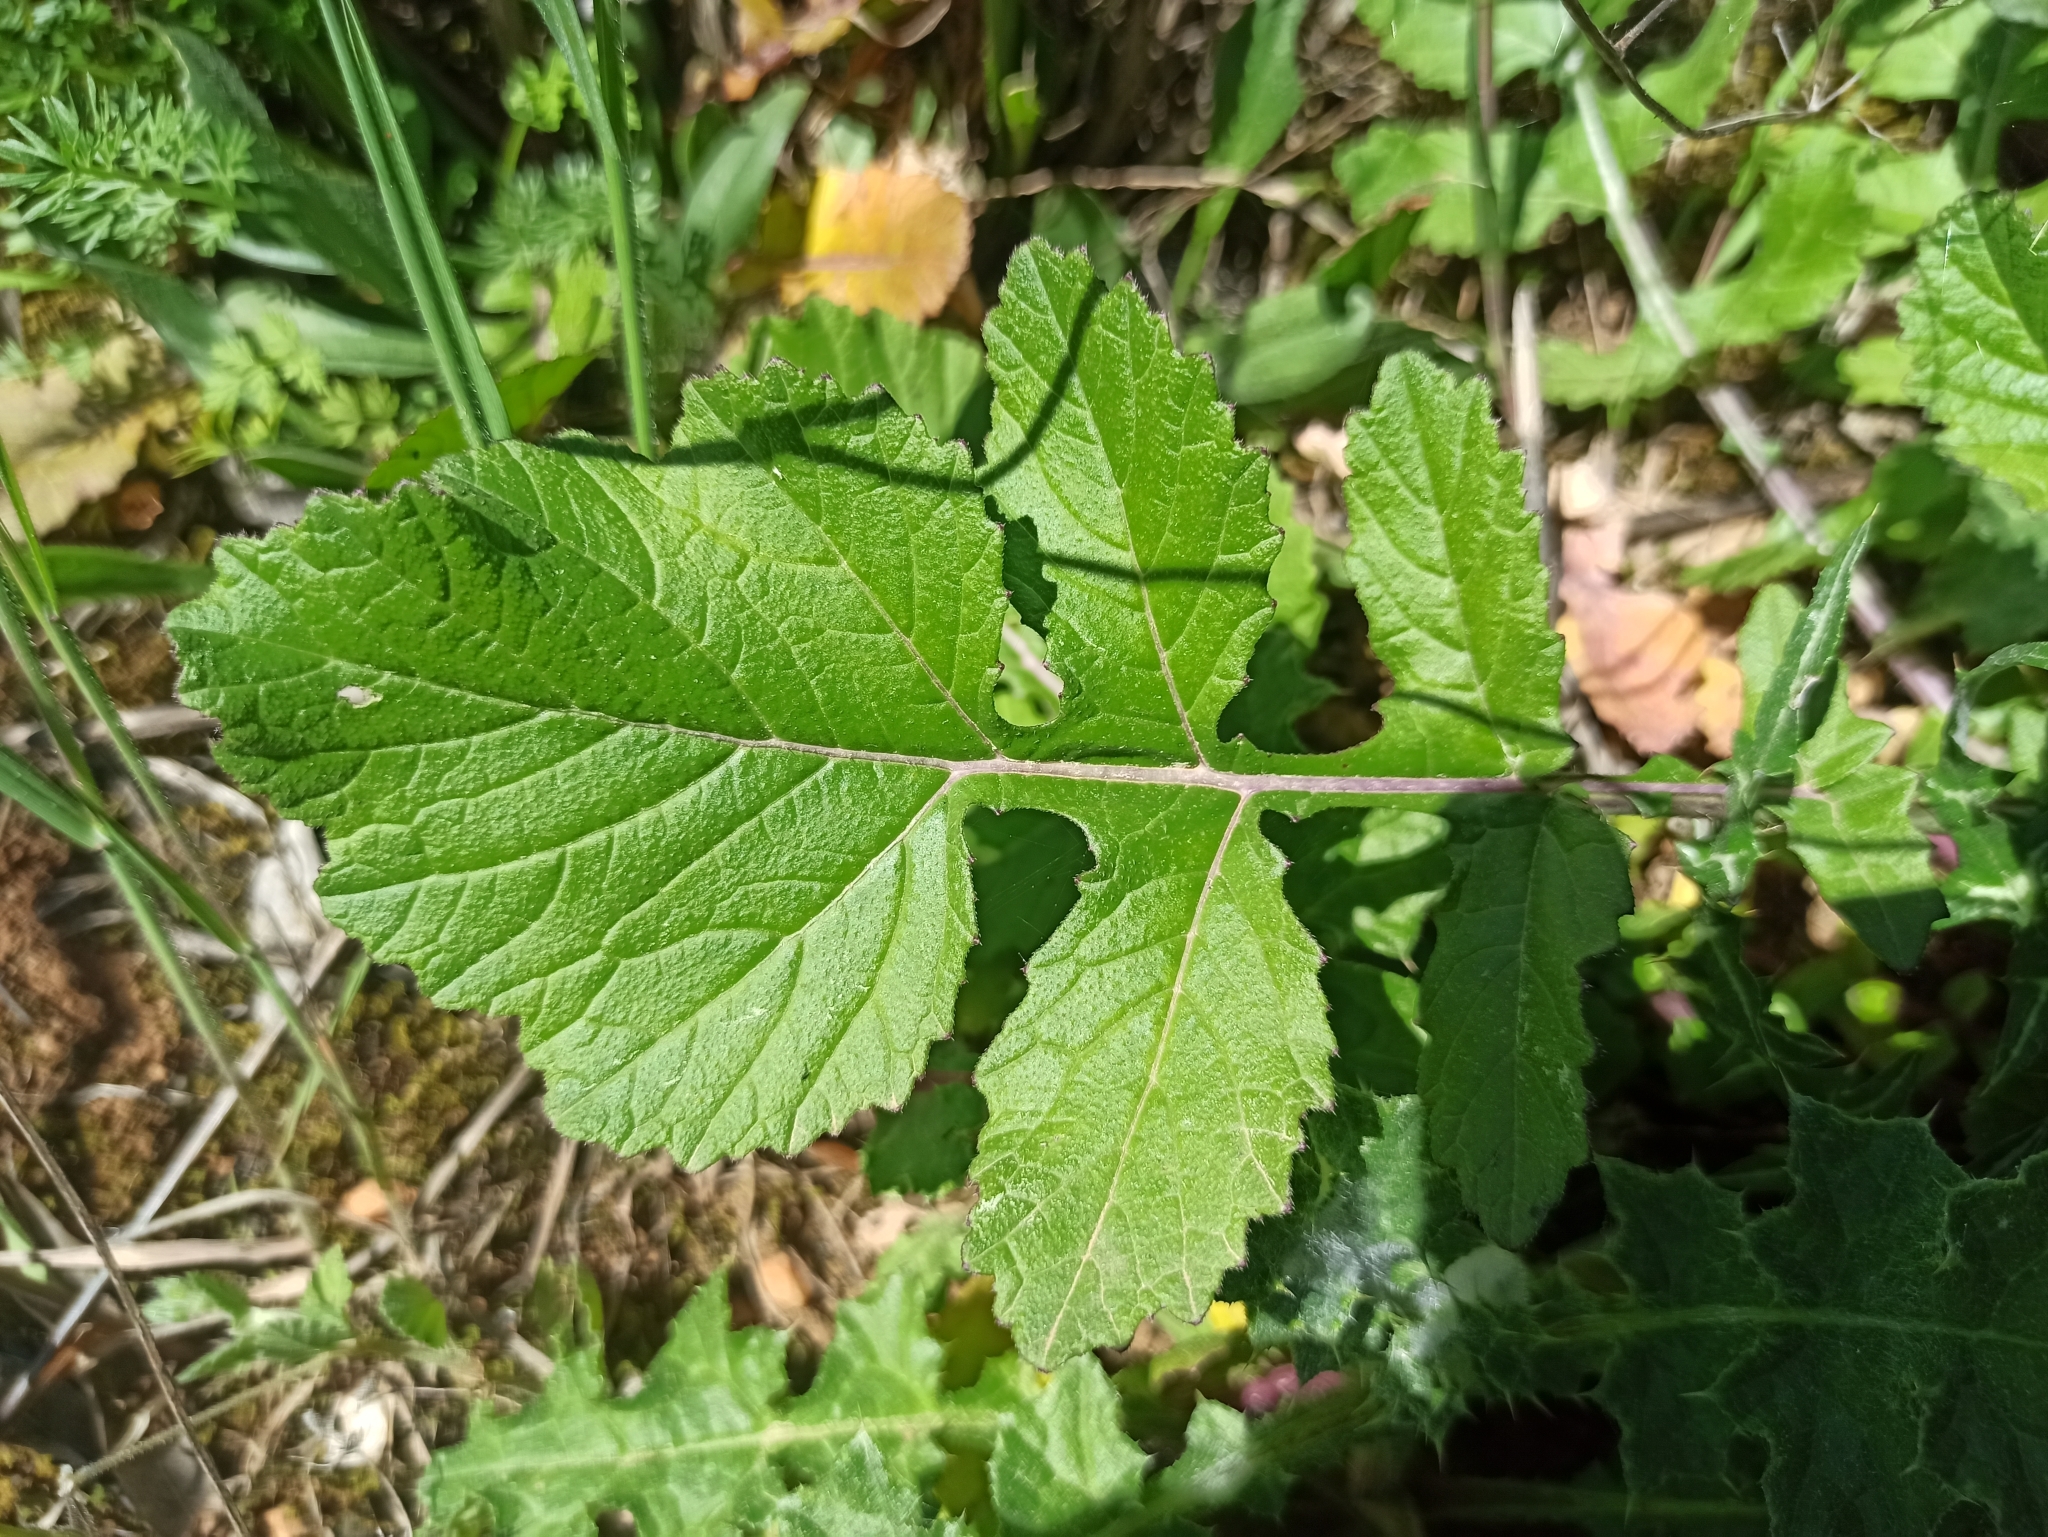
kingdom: Plantae
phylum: Tracheophyta
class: Magnoliopsida
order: Brassicales
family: Brassicaceae
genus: Brassica
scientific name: Brassica nigra
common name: Black mustard
